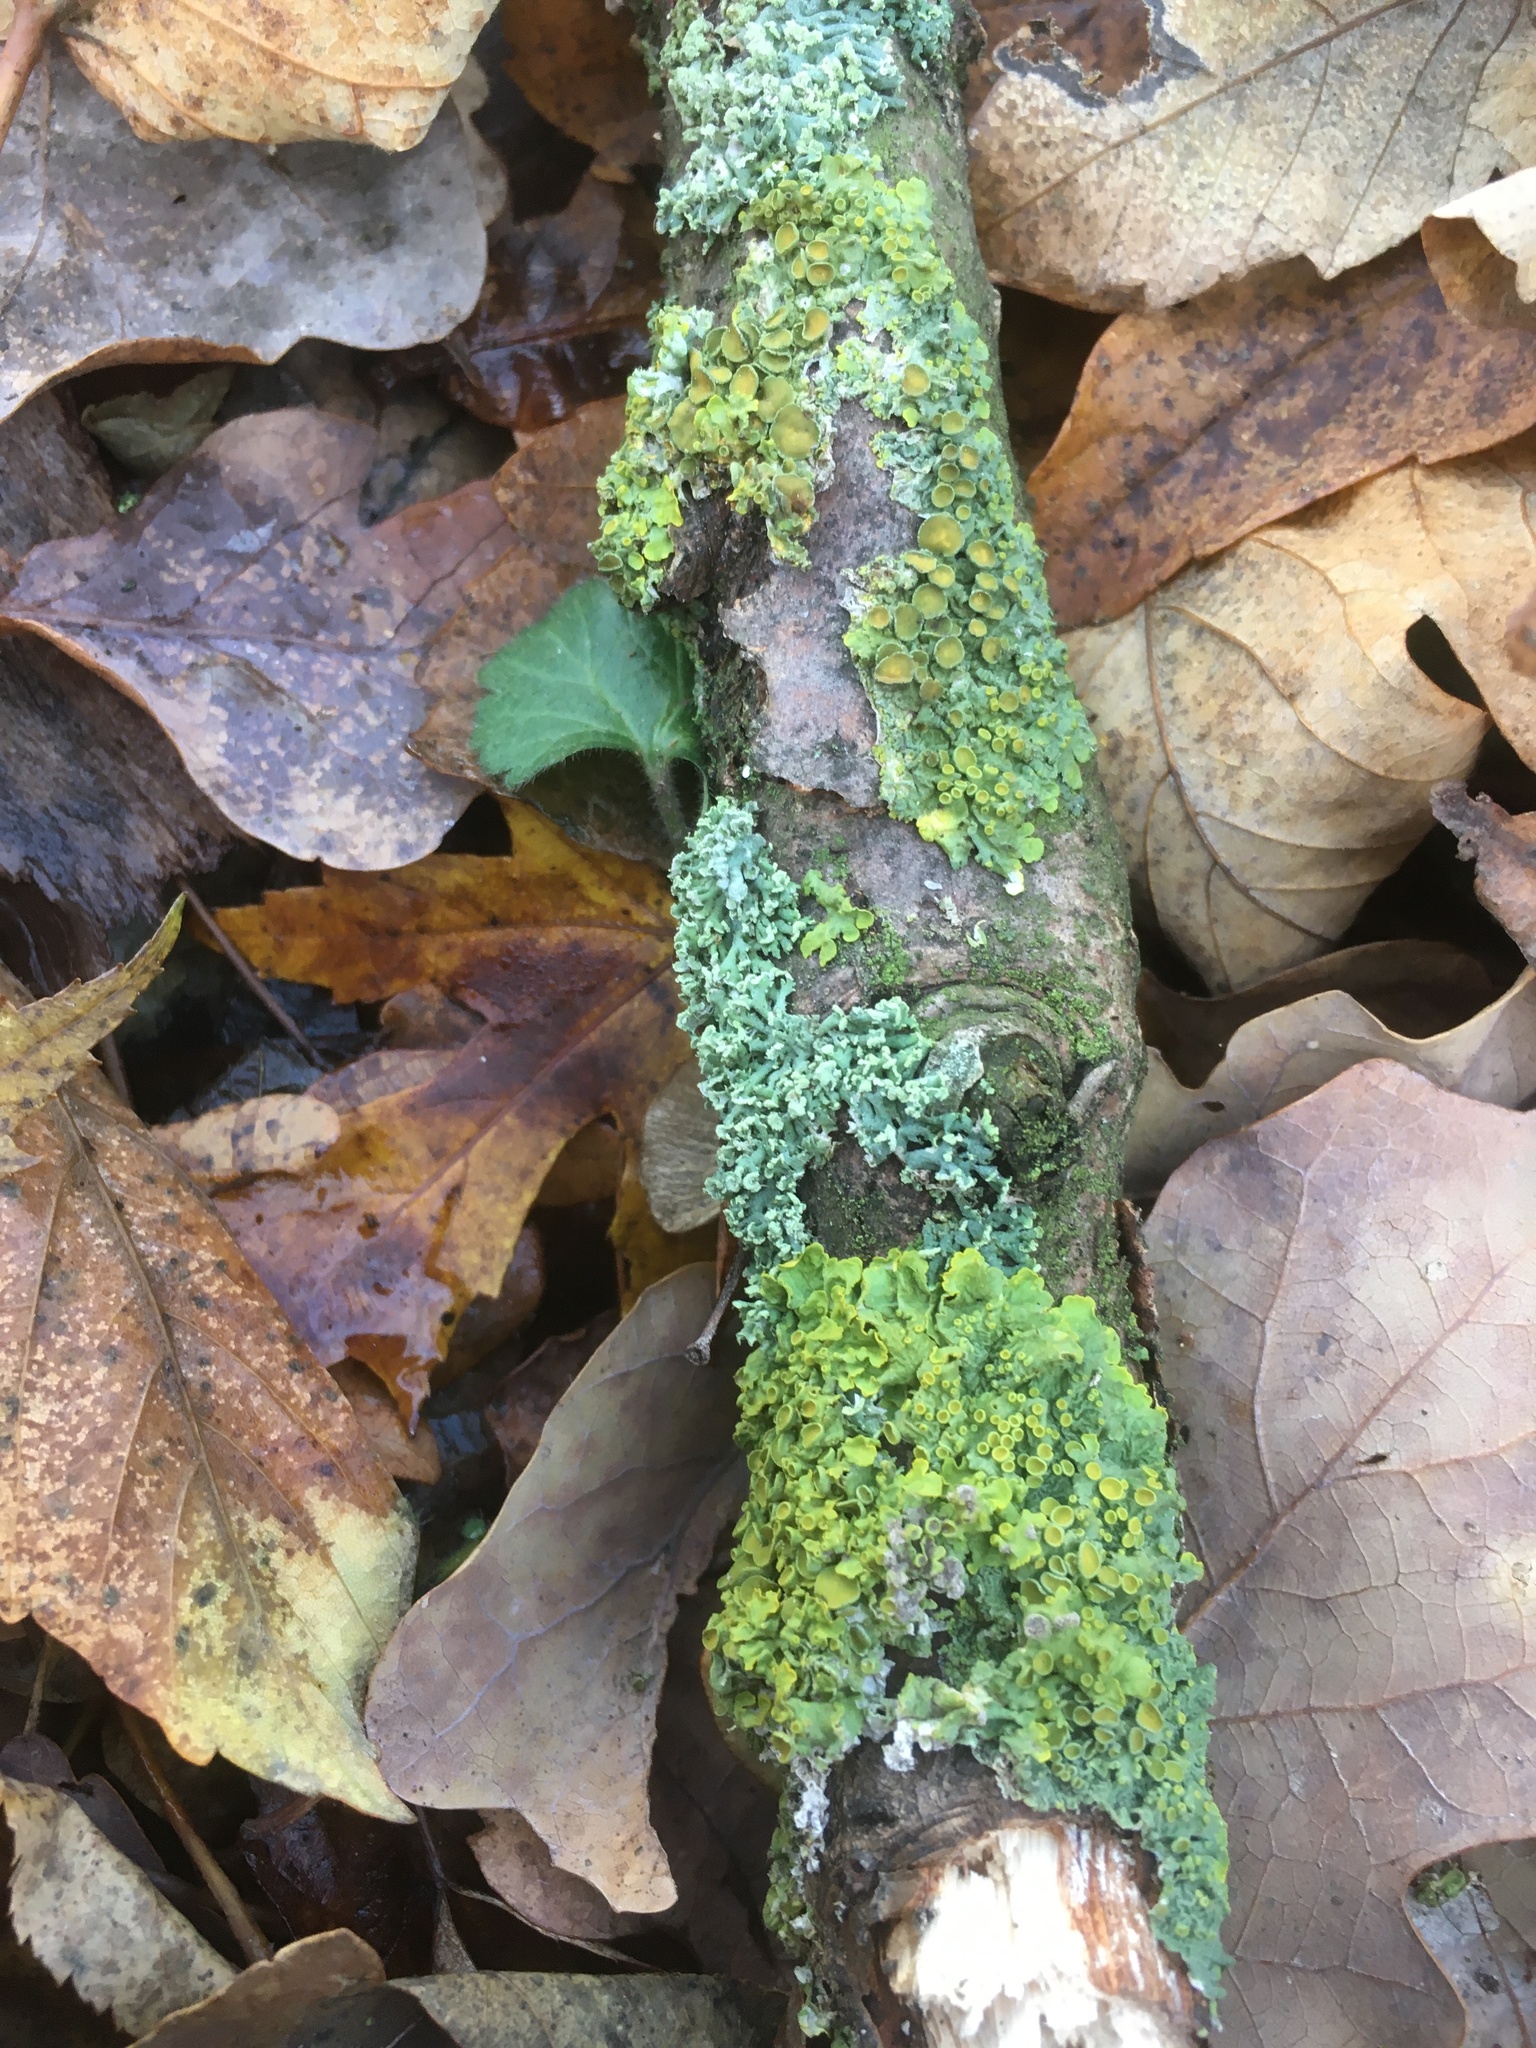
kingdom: Fungi
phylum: Ascomycota
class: Lecanoromycetes
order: Caliciales
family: Physciaceae
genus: Physcia
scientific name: Physcia tenella
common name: Fringed rosette lichen
